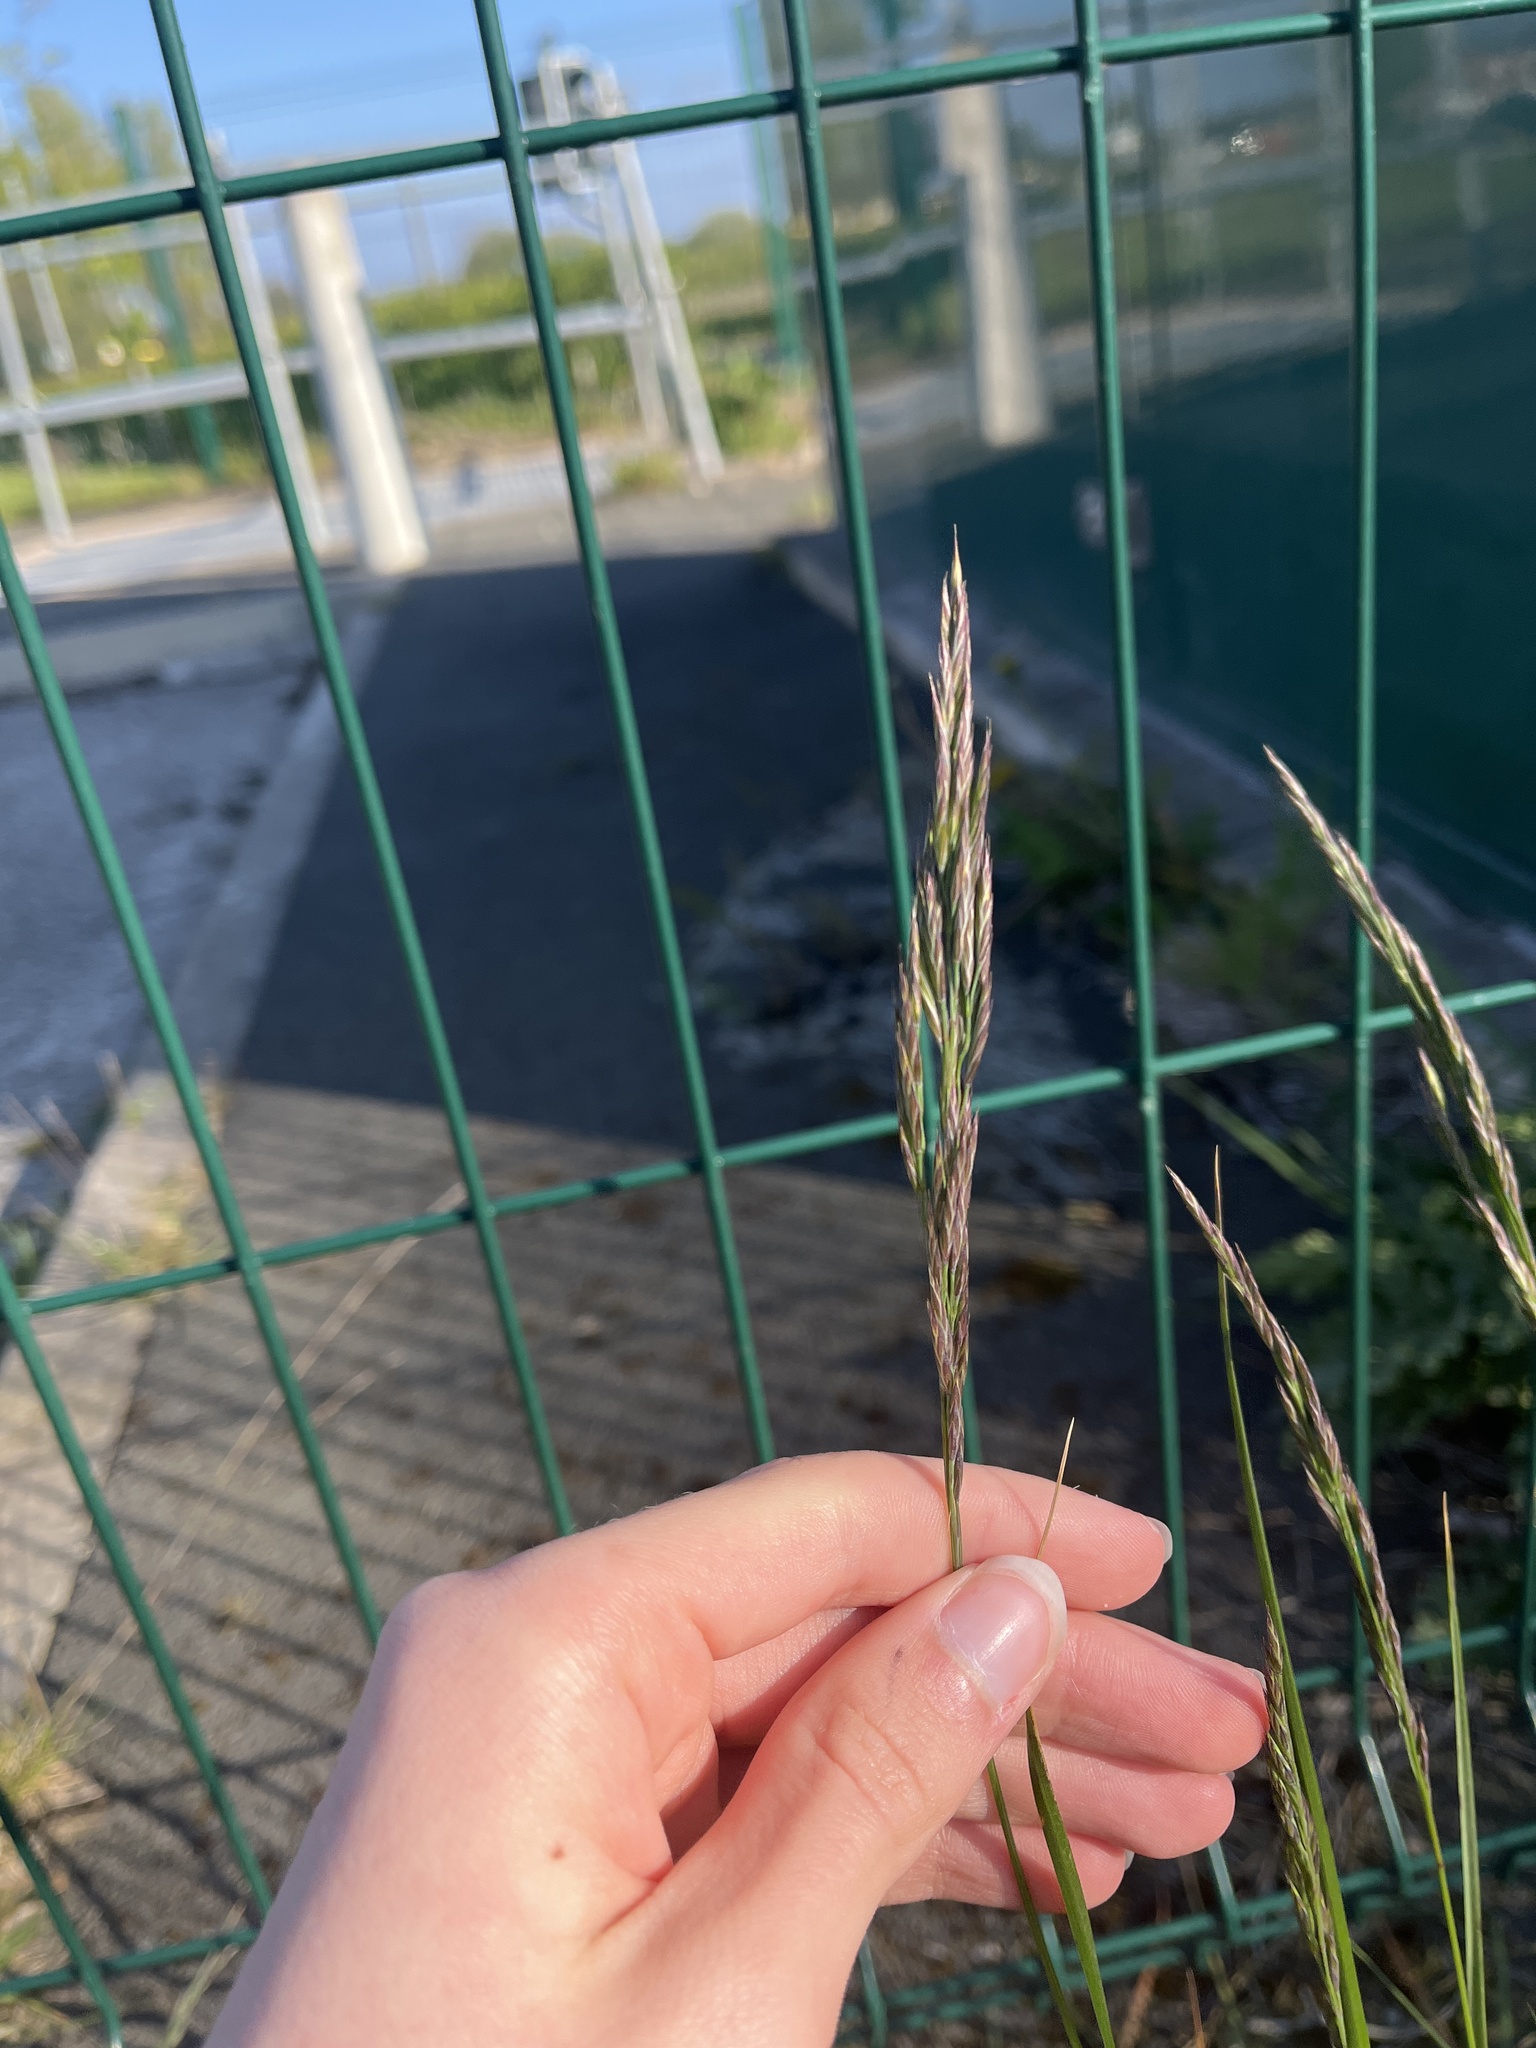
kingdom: Plantae
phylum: Tracheophyta
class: Liliopsida
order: Poales
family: Poaceae
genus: Festuca
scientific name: Festuca rubra
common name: Red fescue
